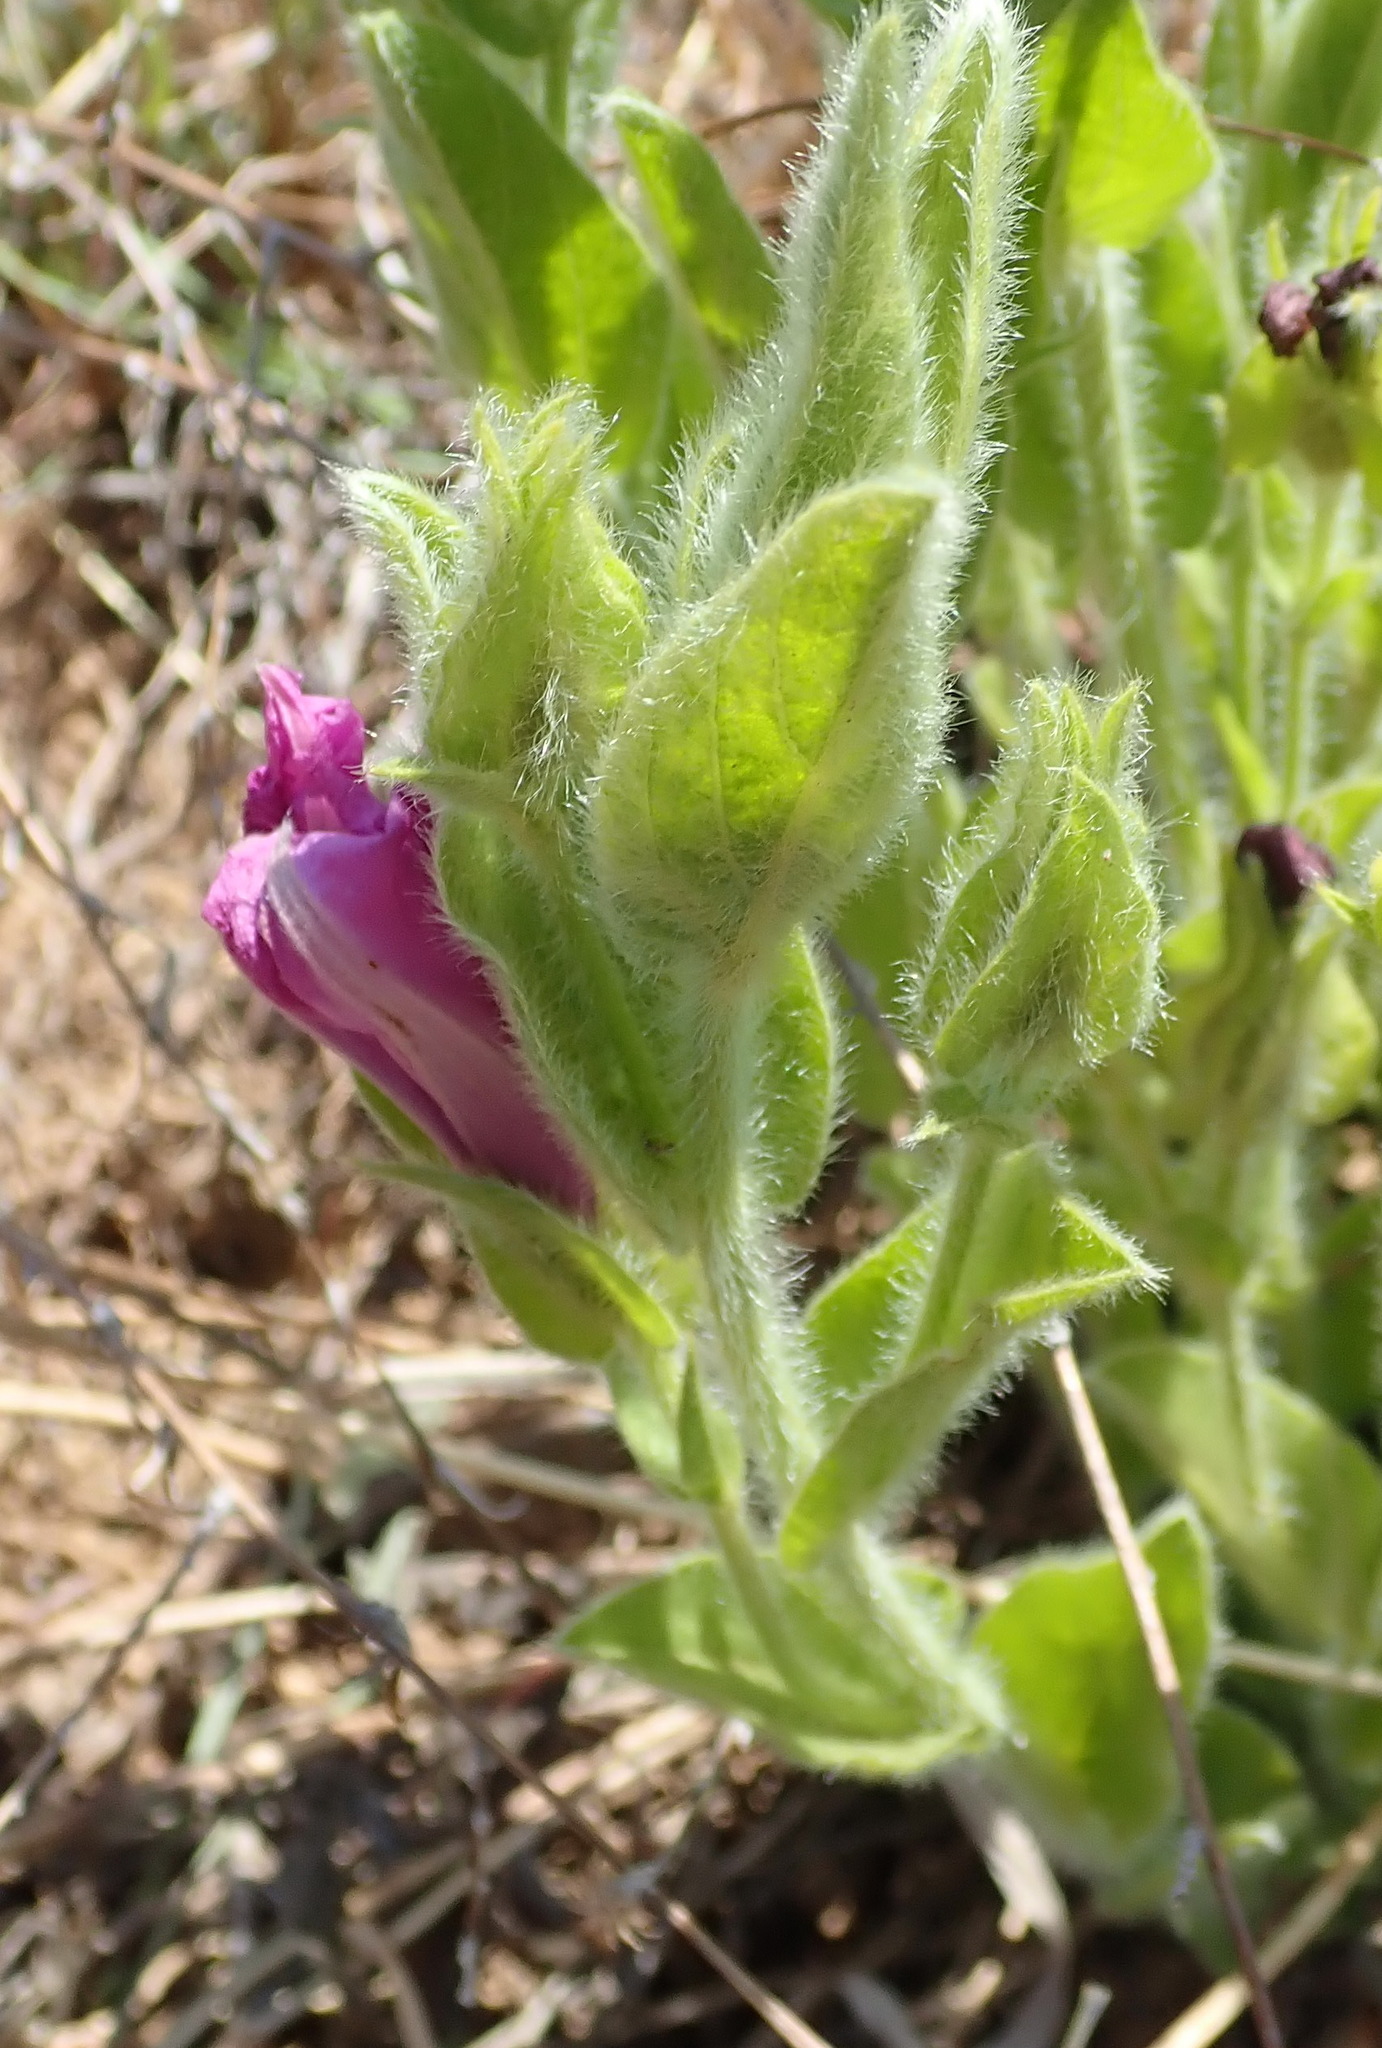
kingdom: Plantae
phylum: Tracheophyta
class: Magnoliopsida
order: Solanales
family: Convolvulaceae
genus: Ipomoea
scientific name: Ipomoea crassipes
